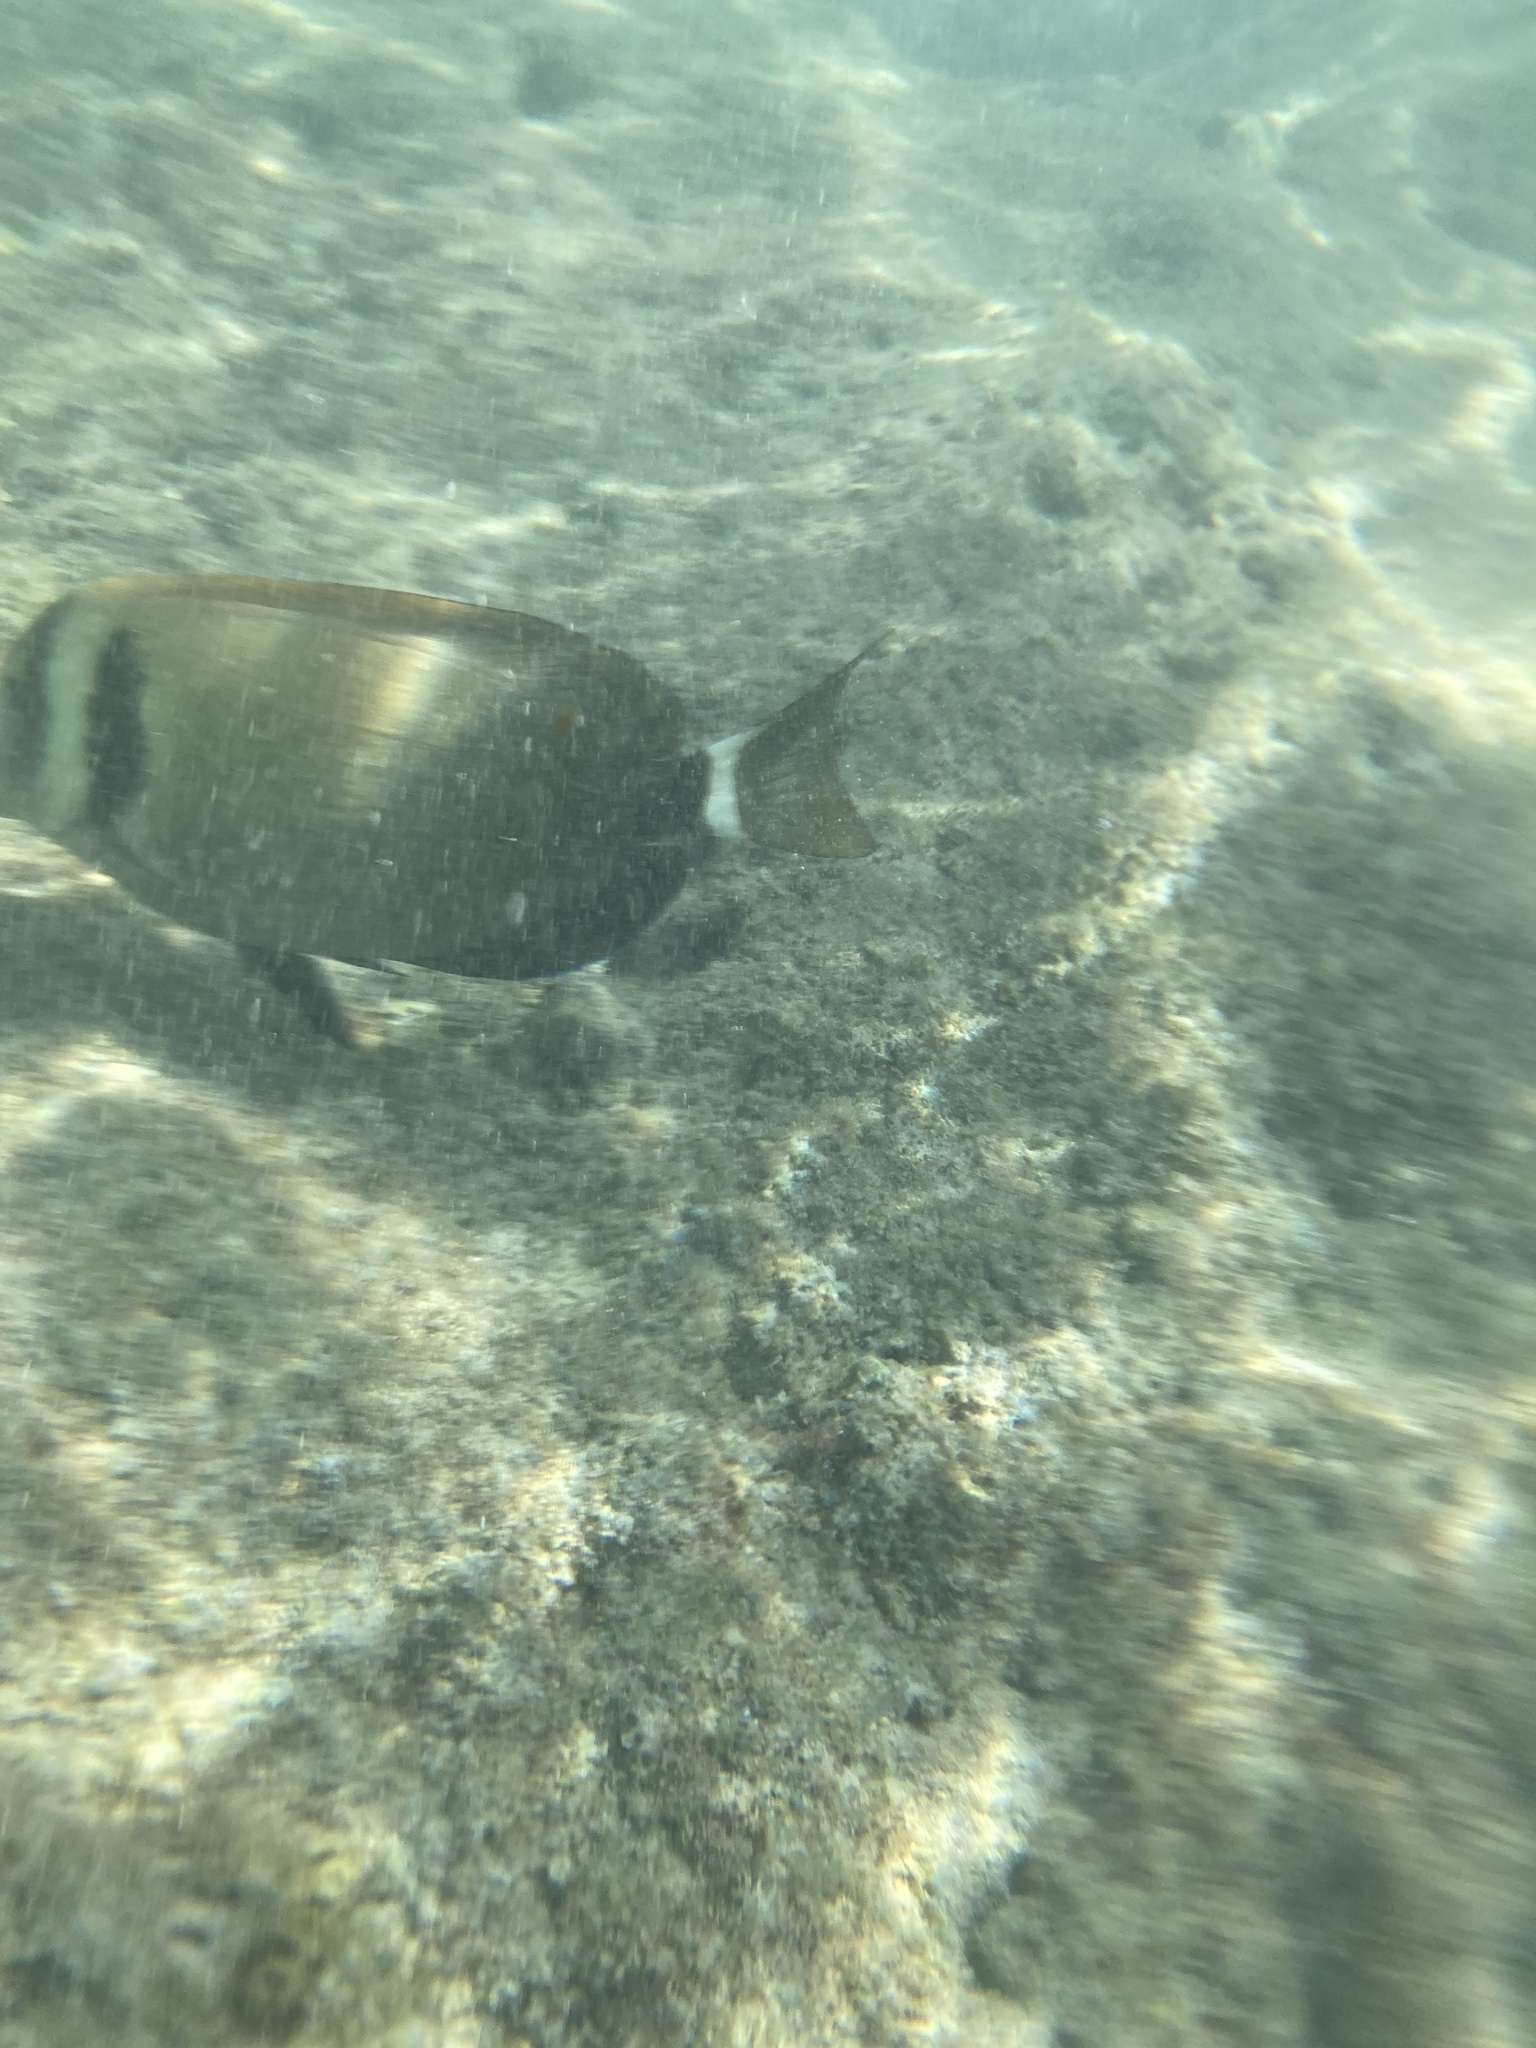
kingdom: Animalia
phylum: Chordata
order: Perciformes
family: Acanthuridae
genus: Acanthurus
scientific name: Acanthurus leucopareius
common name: Head-band surgeonfish
